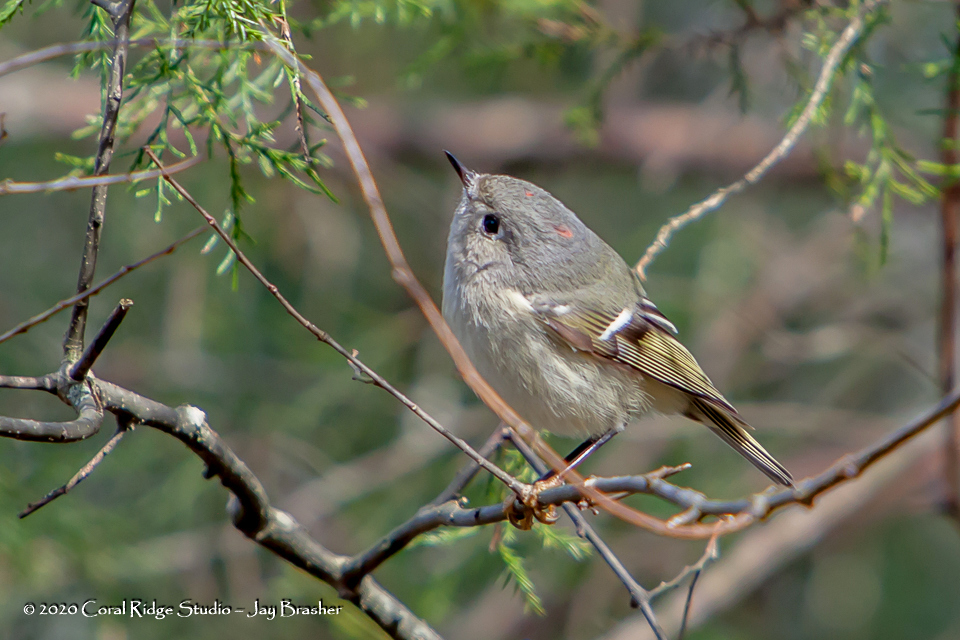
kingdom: Animalia
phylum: Chordata
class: Aves
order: Passeriformes
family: Regulidae
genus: Regulus
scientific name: Regulus calendula
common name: Ruby-crowned kinglet
